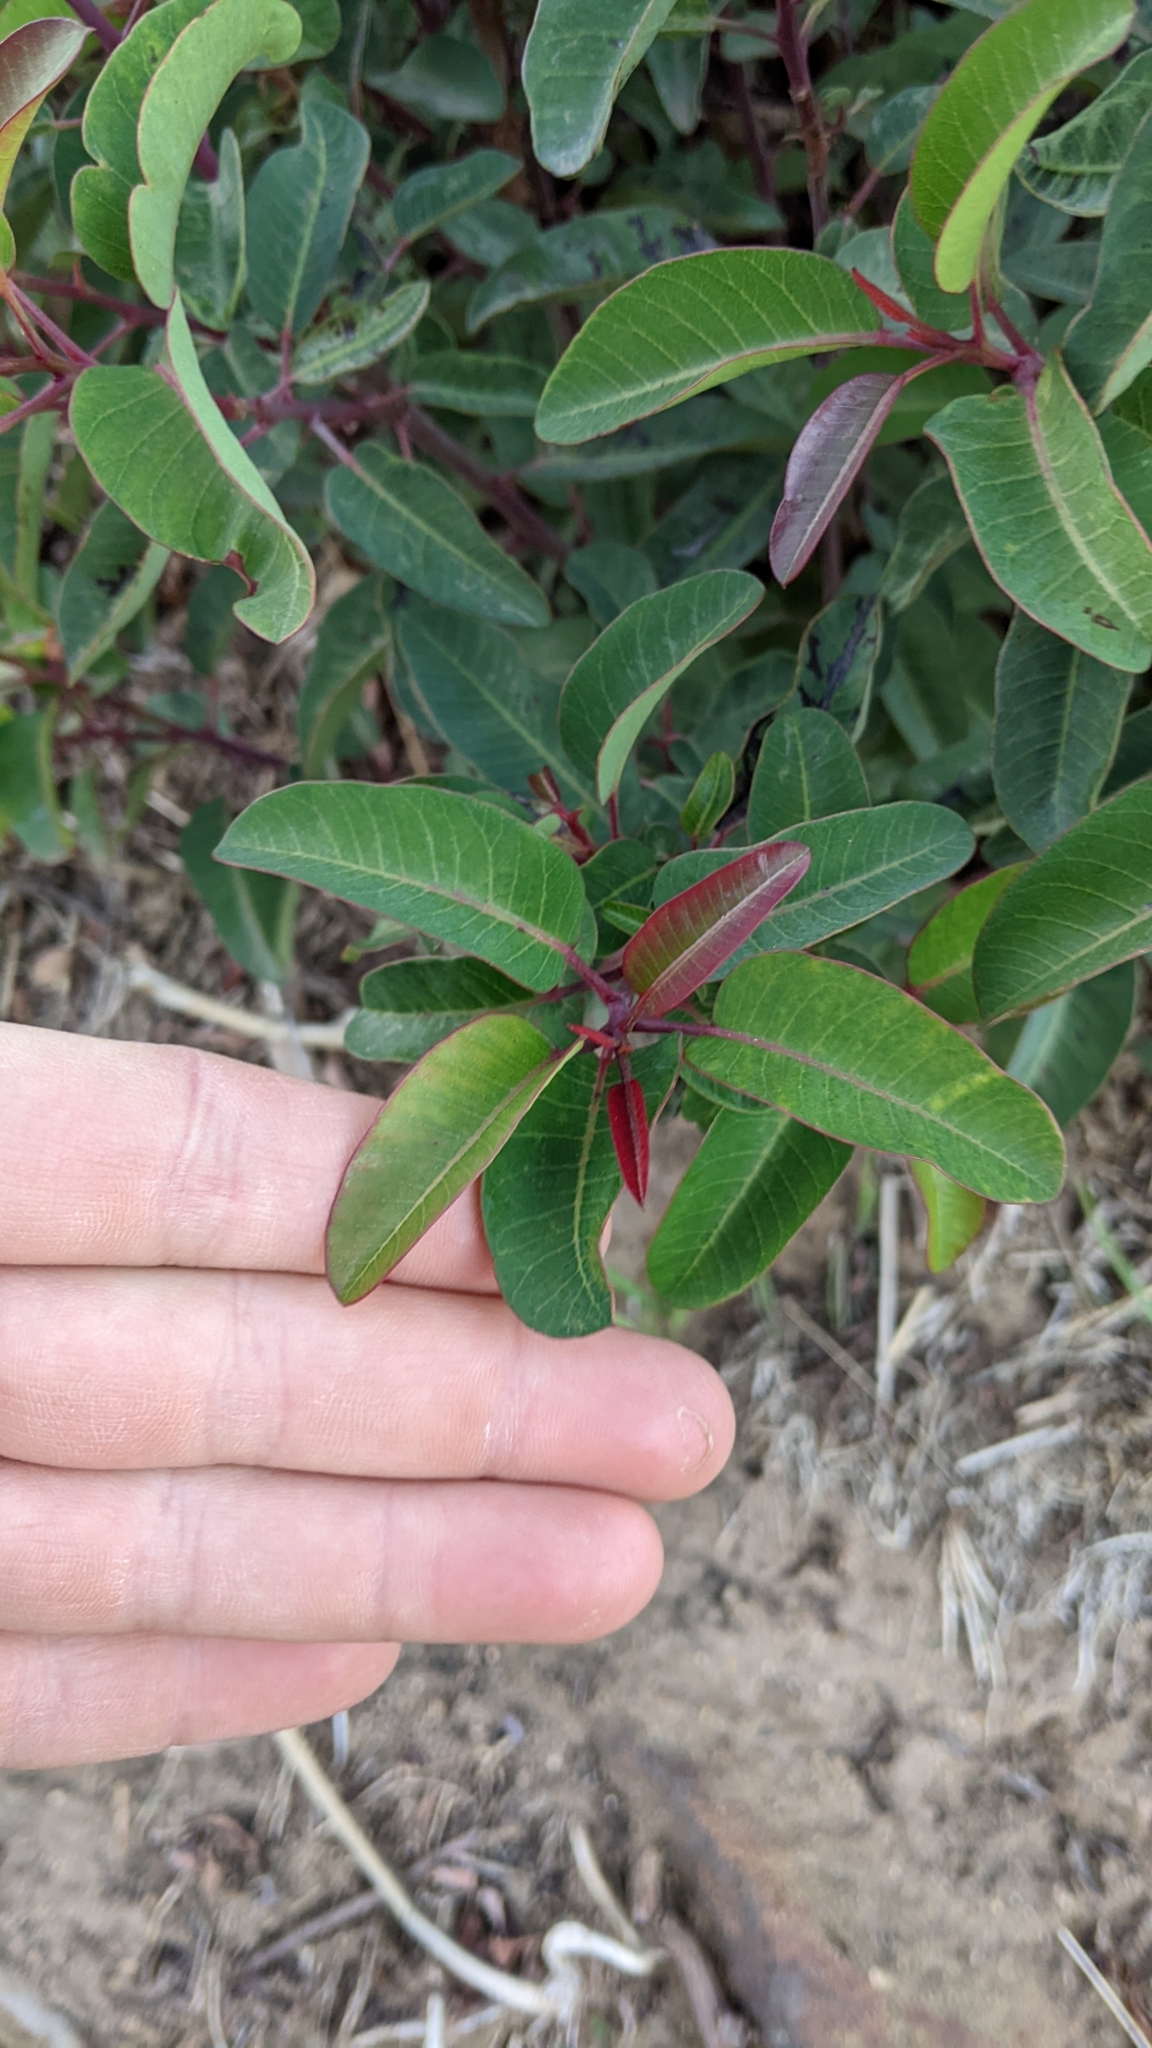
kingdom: Plantae
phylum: Tracheophyta
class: Magnoliopsida
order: Sapindales
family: Anacardiaceae
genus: Malosma
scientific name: Malosma laurina
